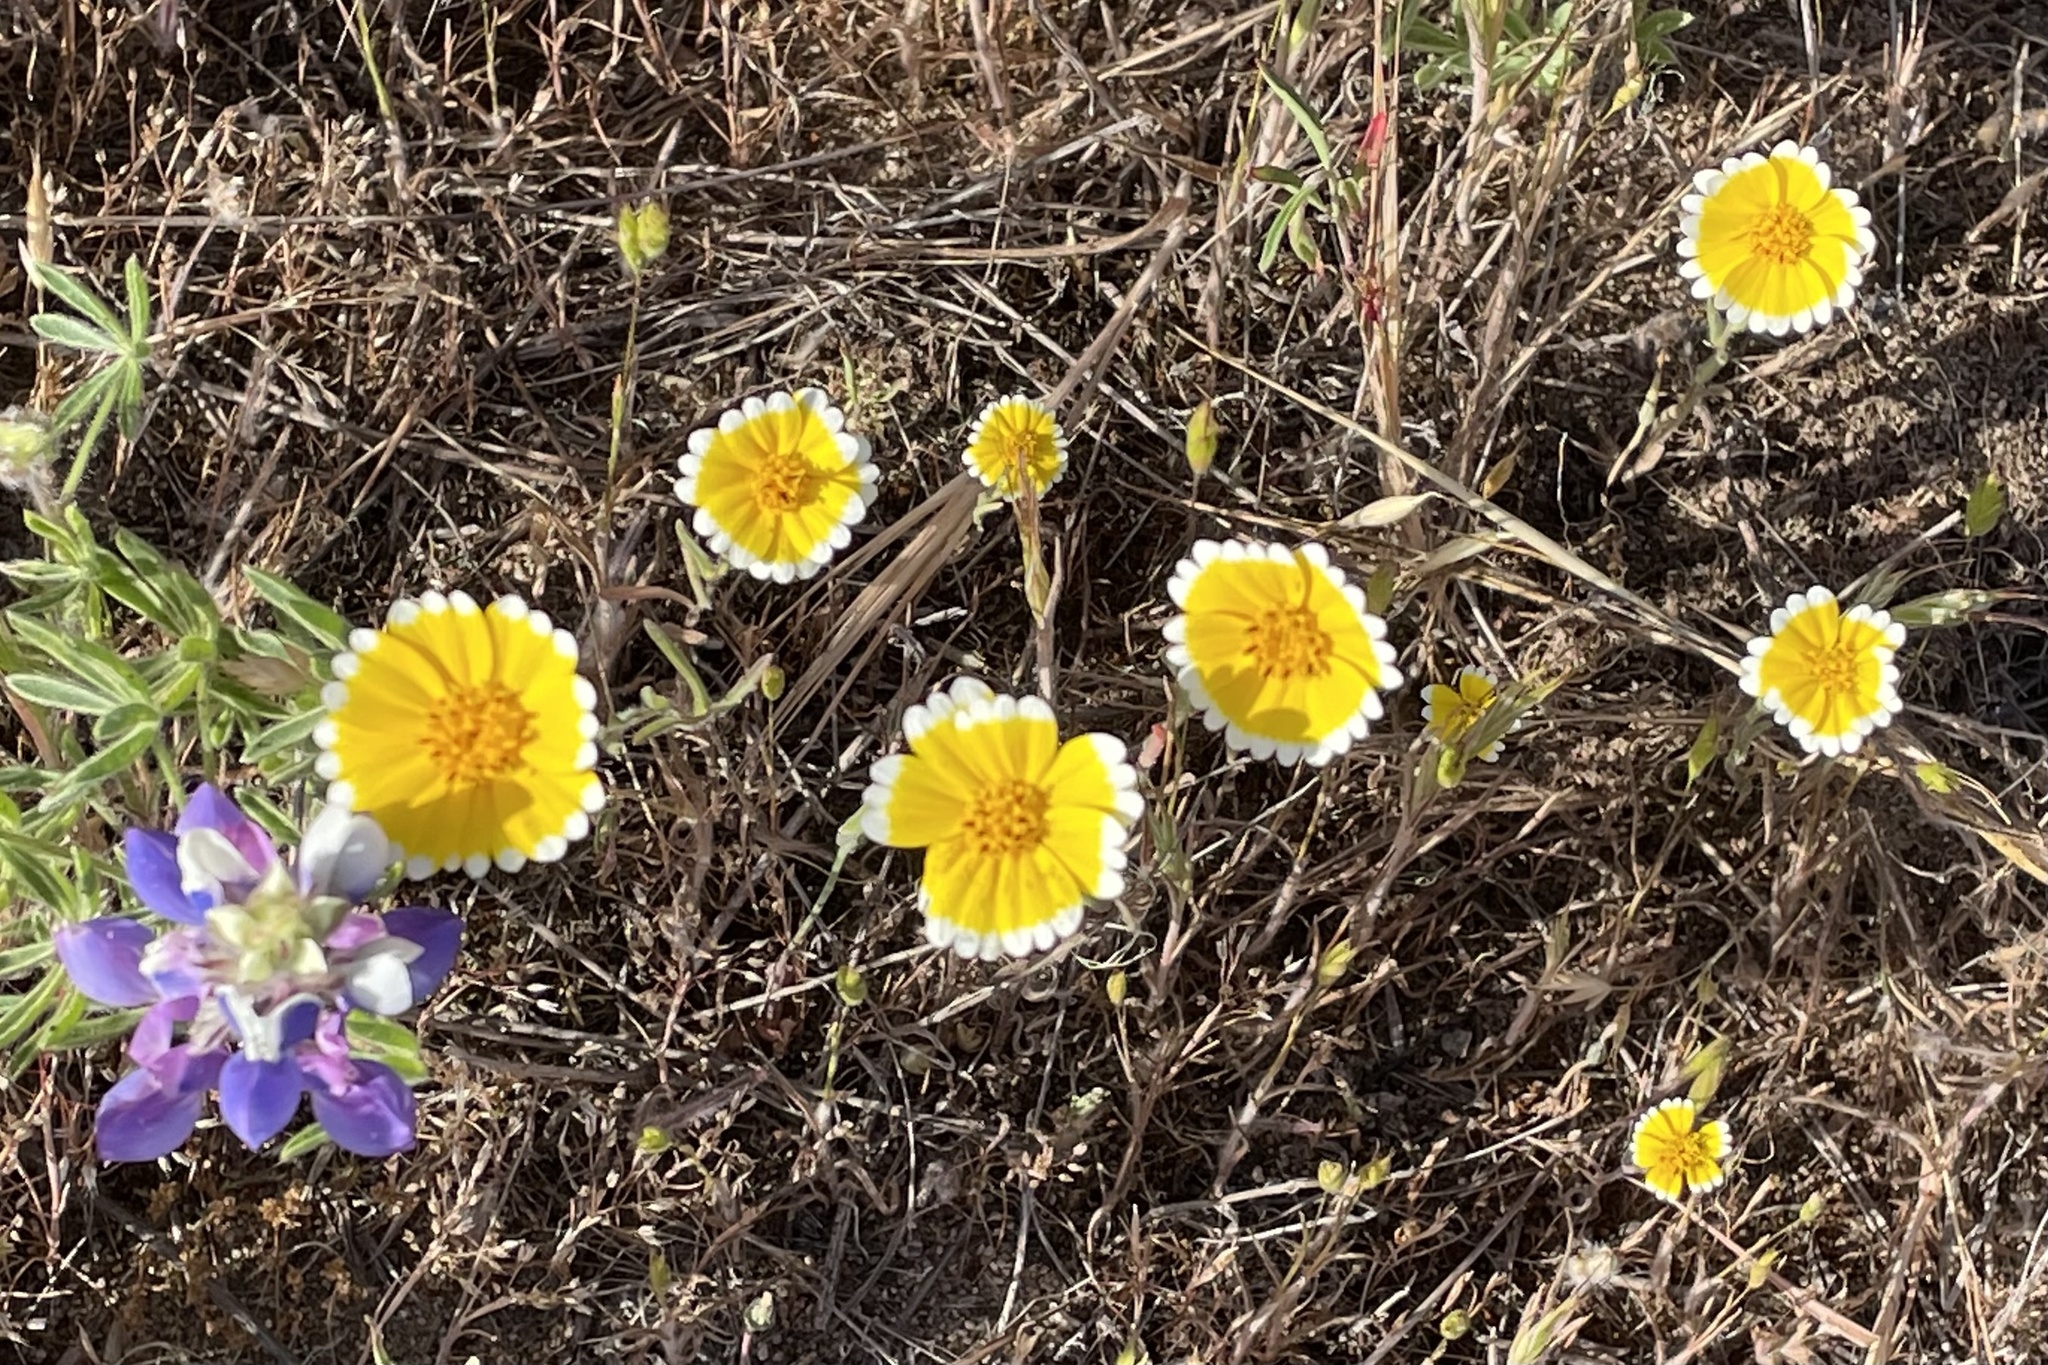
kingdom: Plantae
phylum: Tracheophyta
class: Magnoliopsida
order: Asterales
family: Asteraceae
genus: Layia
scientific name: Layia platyglossa
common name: Tidy-tips
